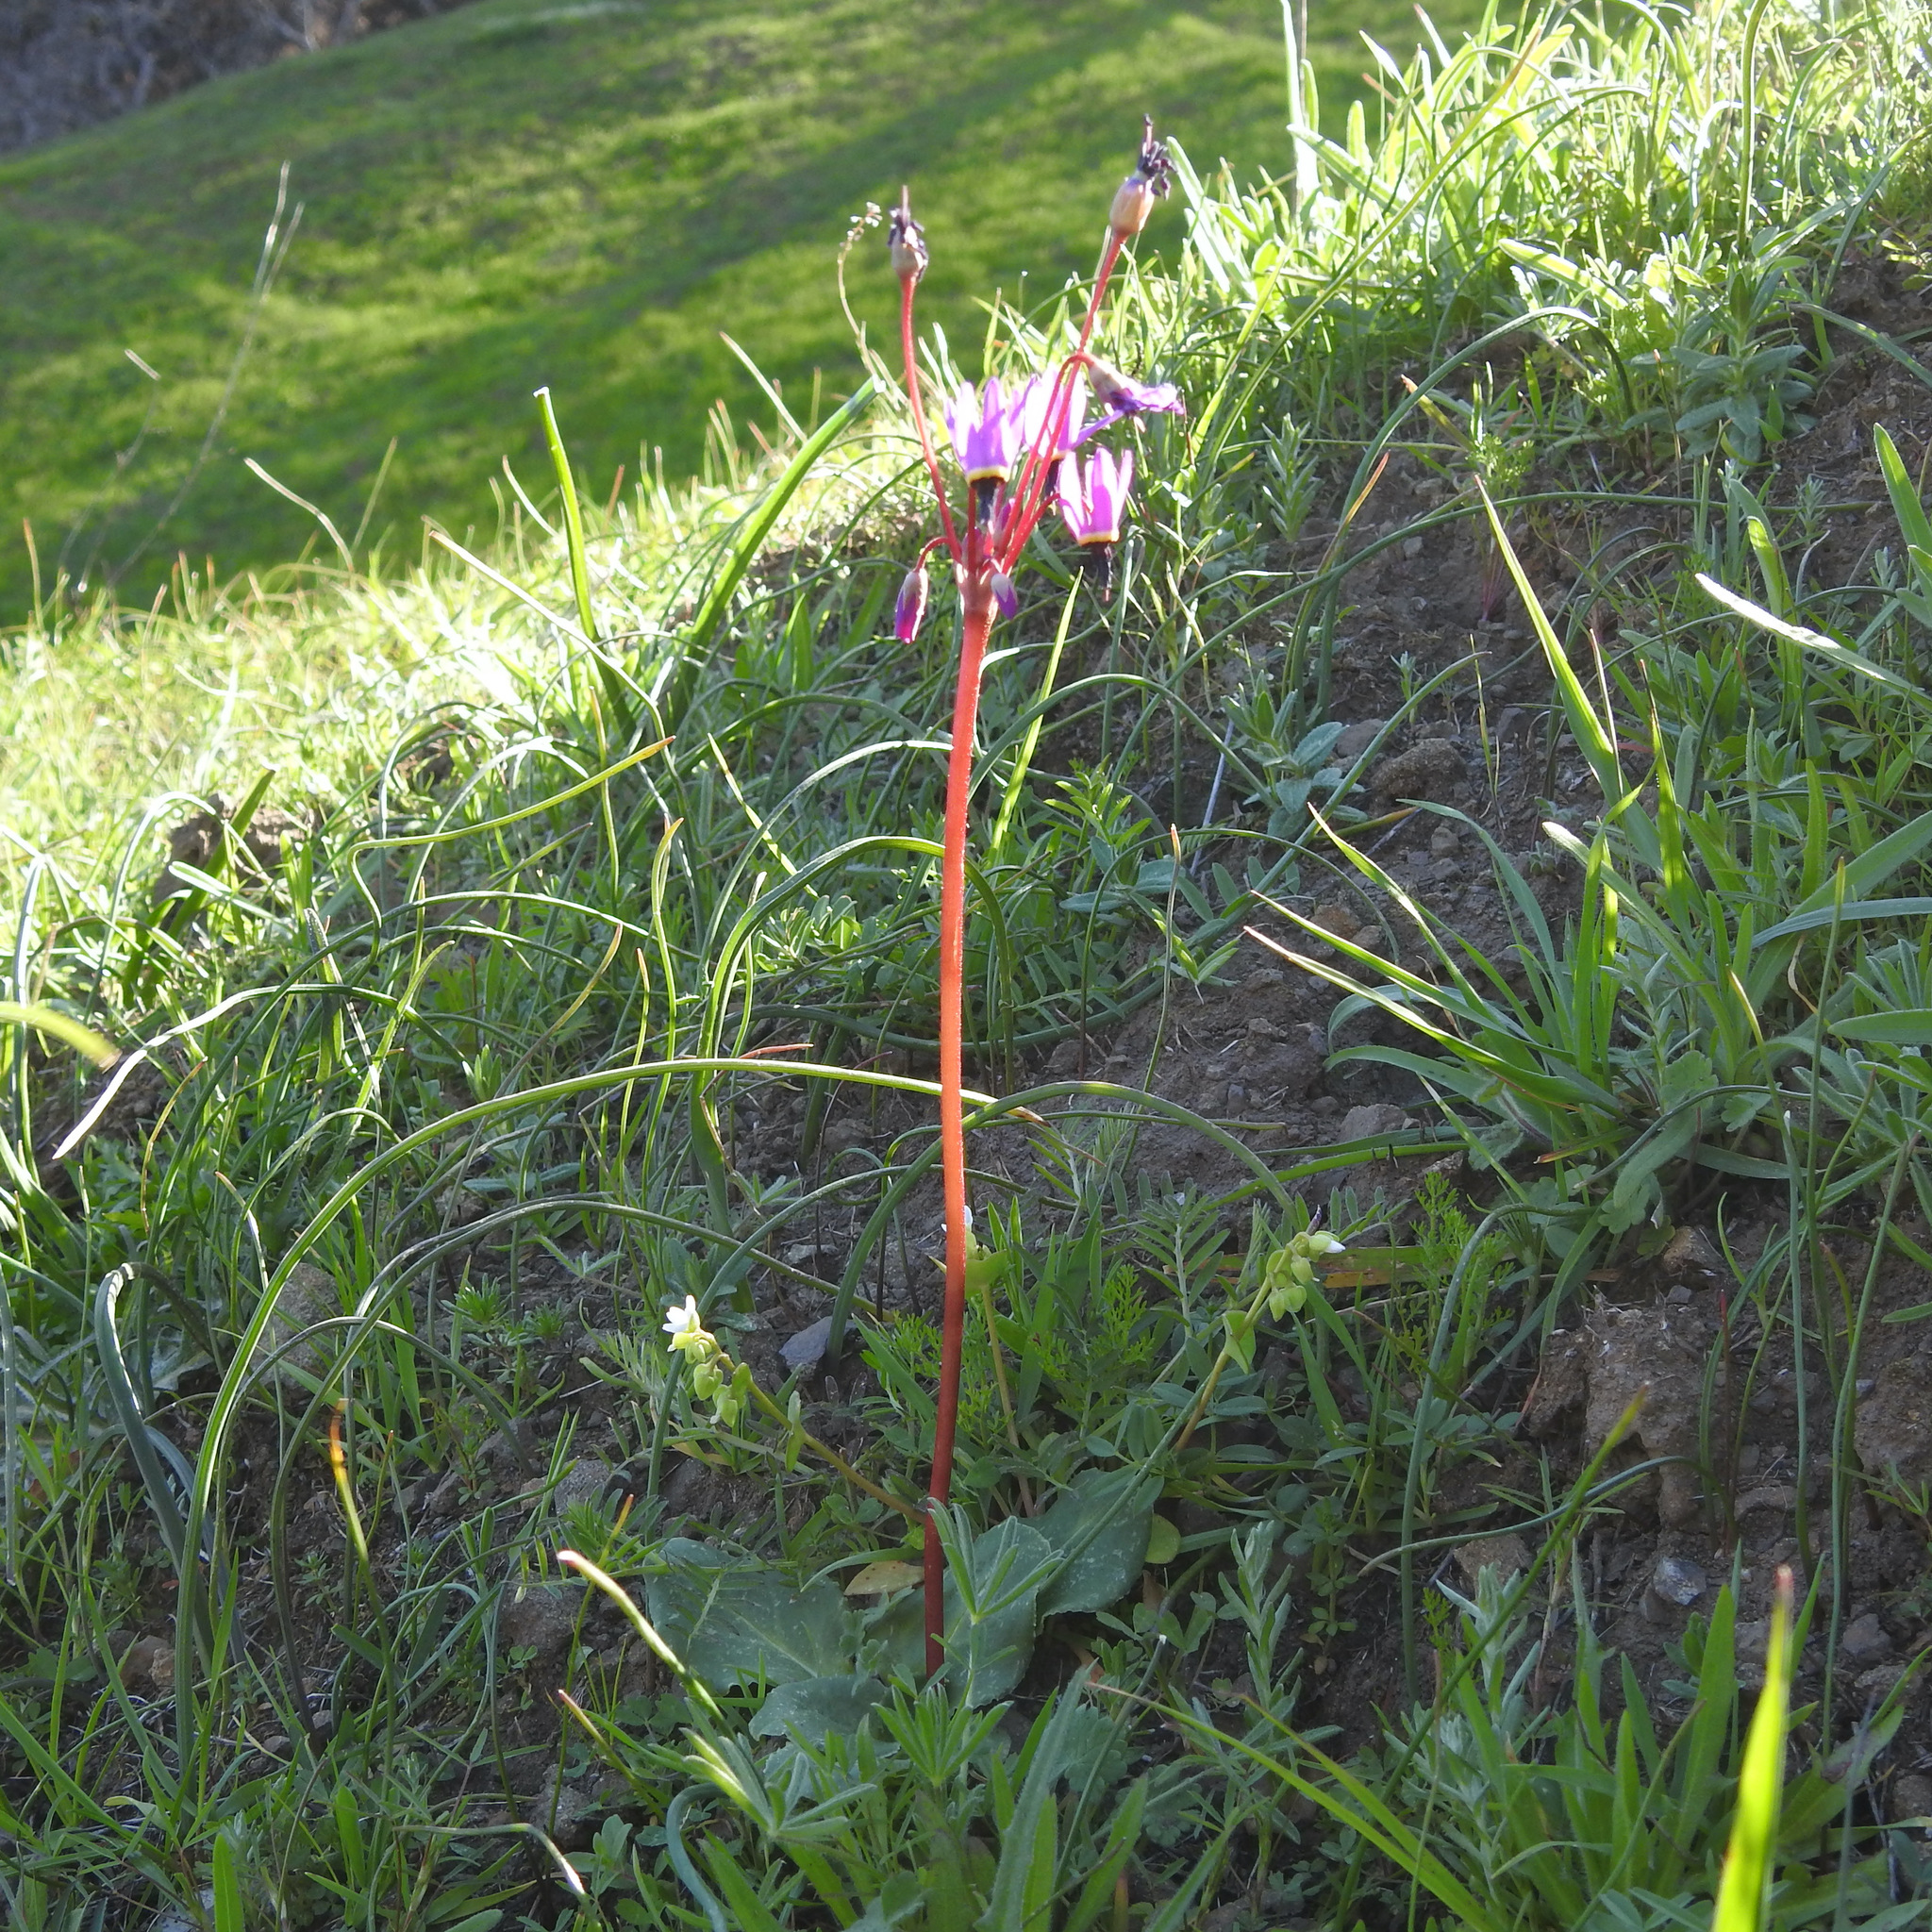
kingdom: Plantae
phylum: Tracheophyta
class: Magnoliopsida
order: Ericales
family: Primulaceae
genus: Dodecatheon
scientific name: Dodecatheon hendersonii
